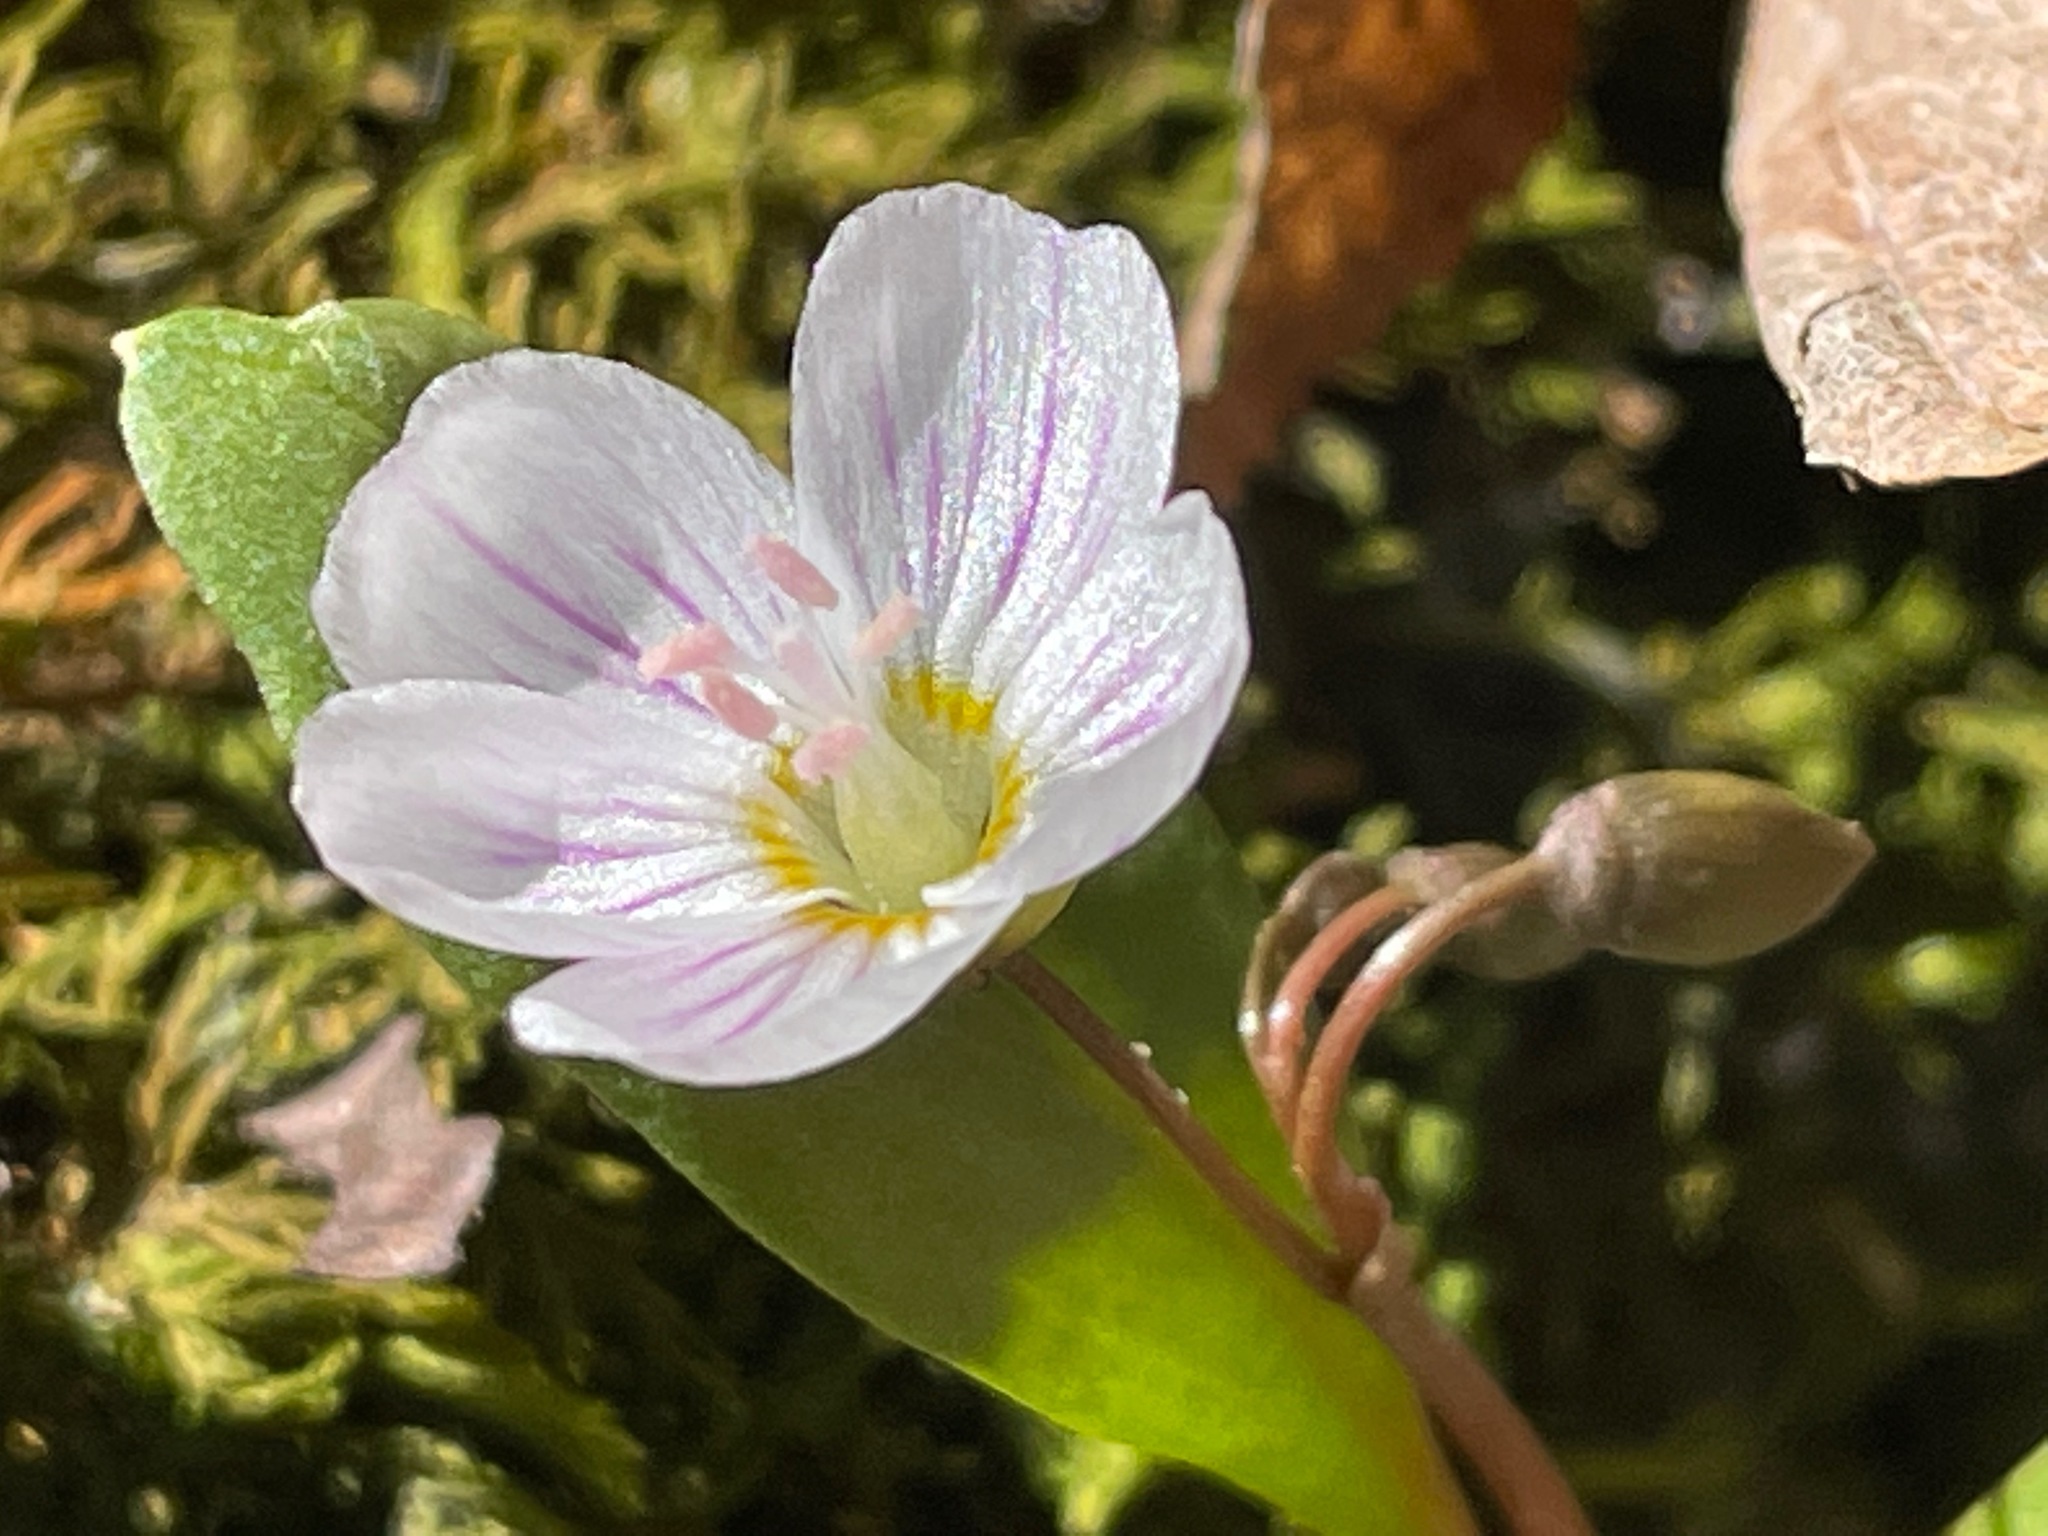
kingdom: Plantae
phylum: Tracheophyta
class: Magnoliopsida
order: Caryophyllales
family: Montiaceae
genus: Claytonia
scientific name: Claytonia caroliniana
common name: Carolina spring beauty
